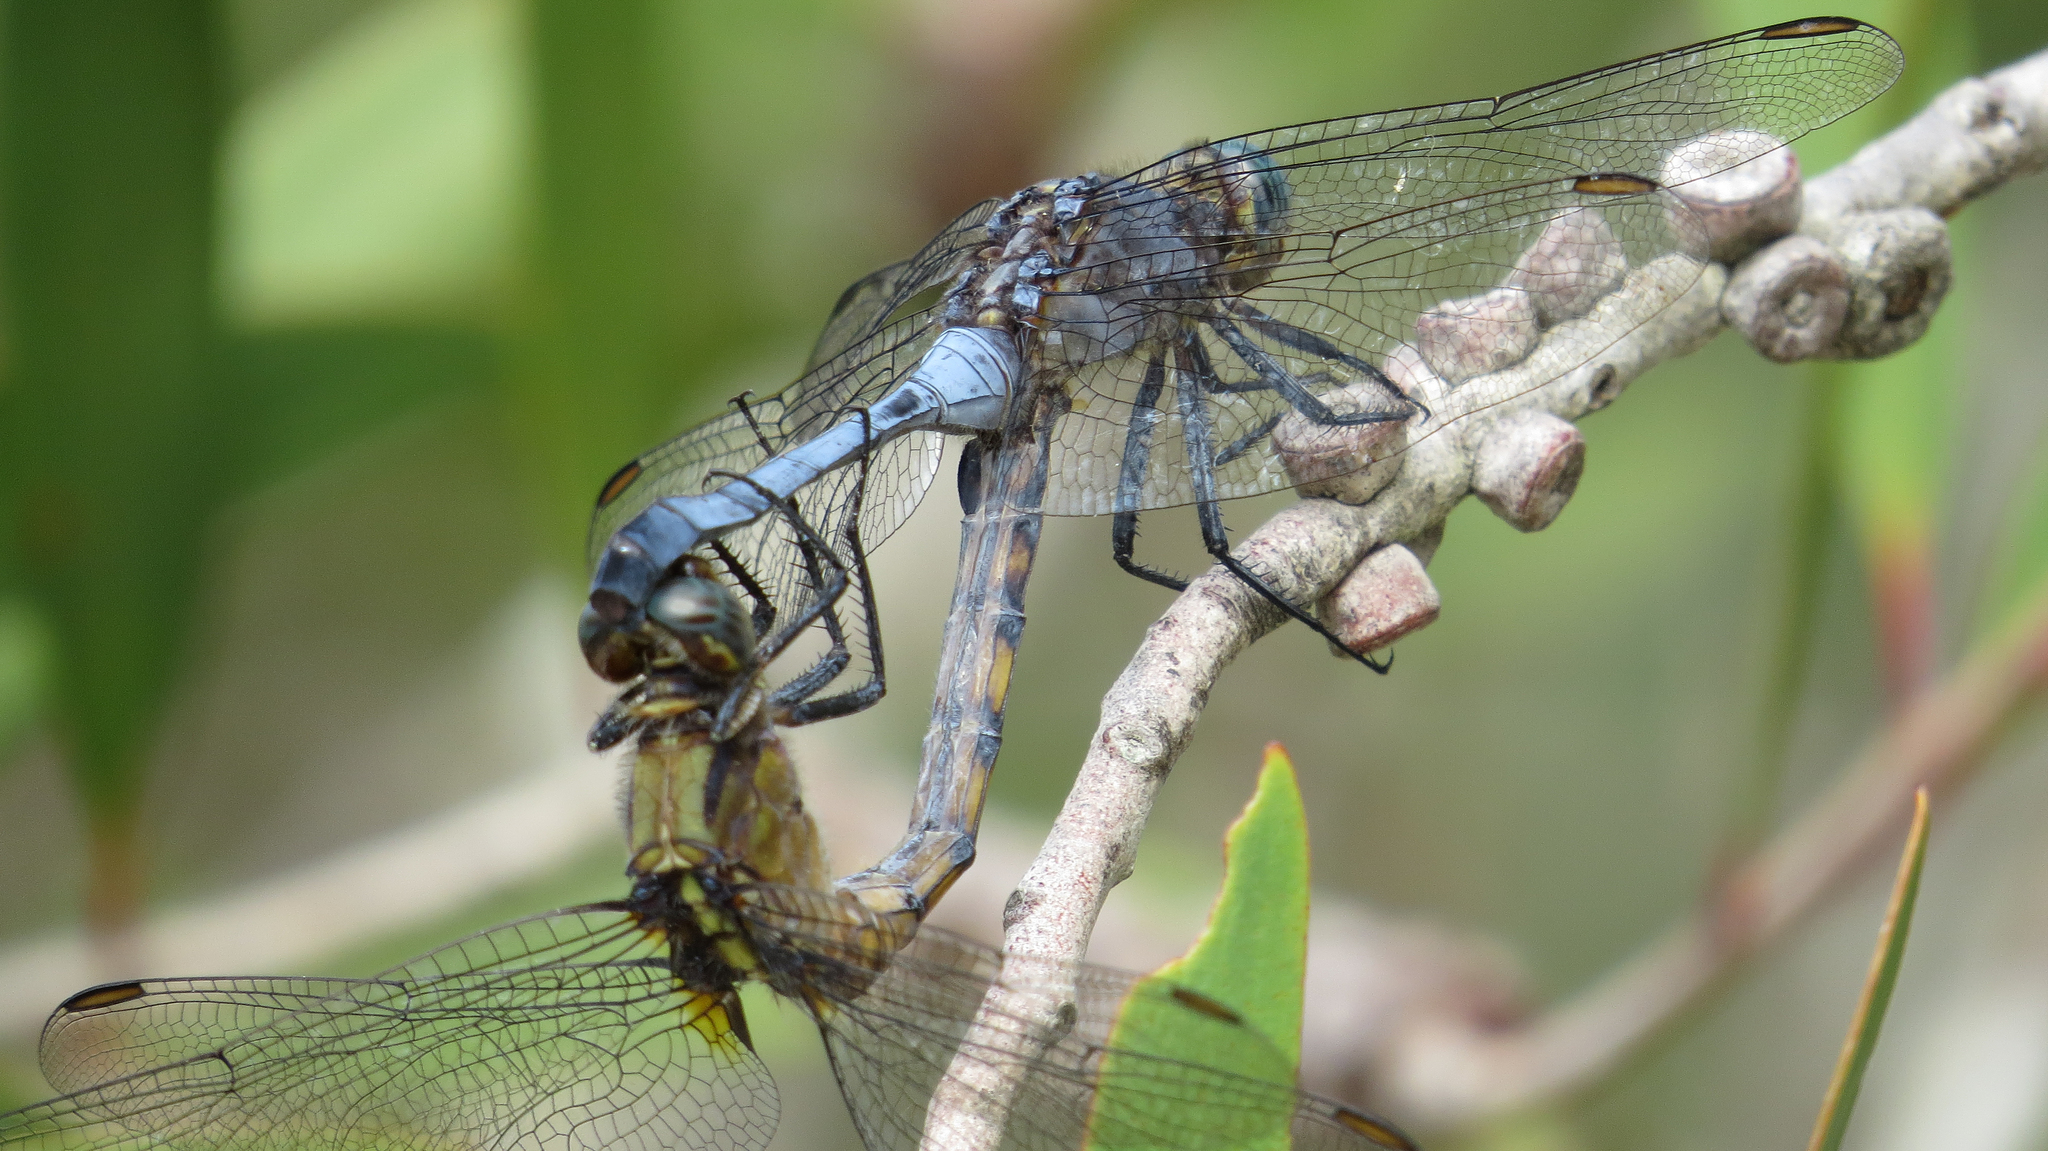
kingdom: Animalia
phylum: Arthropoda
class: Insecta
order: Odonata
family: Libellulidae
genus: Orthetrum
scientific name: Orthetrum boumiera
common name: Brownwater skimmer
